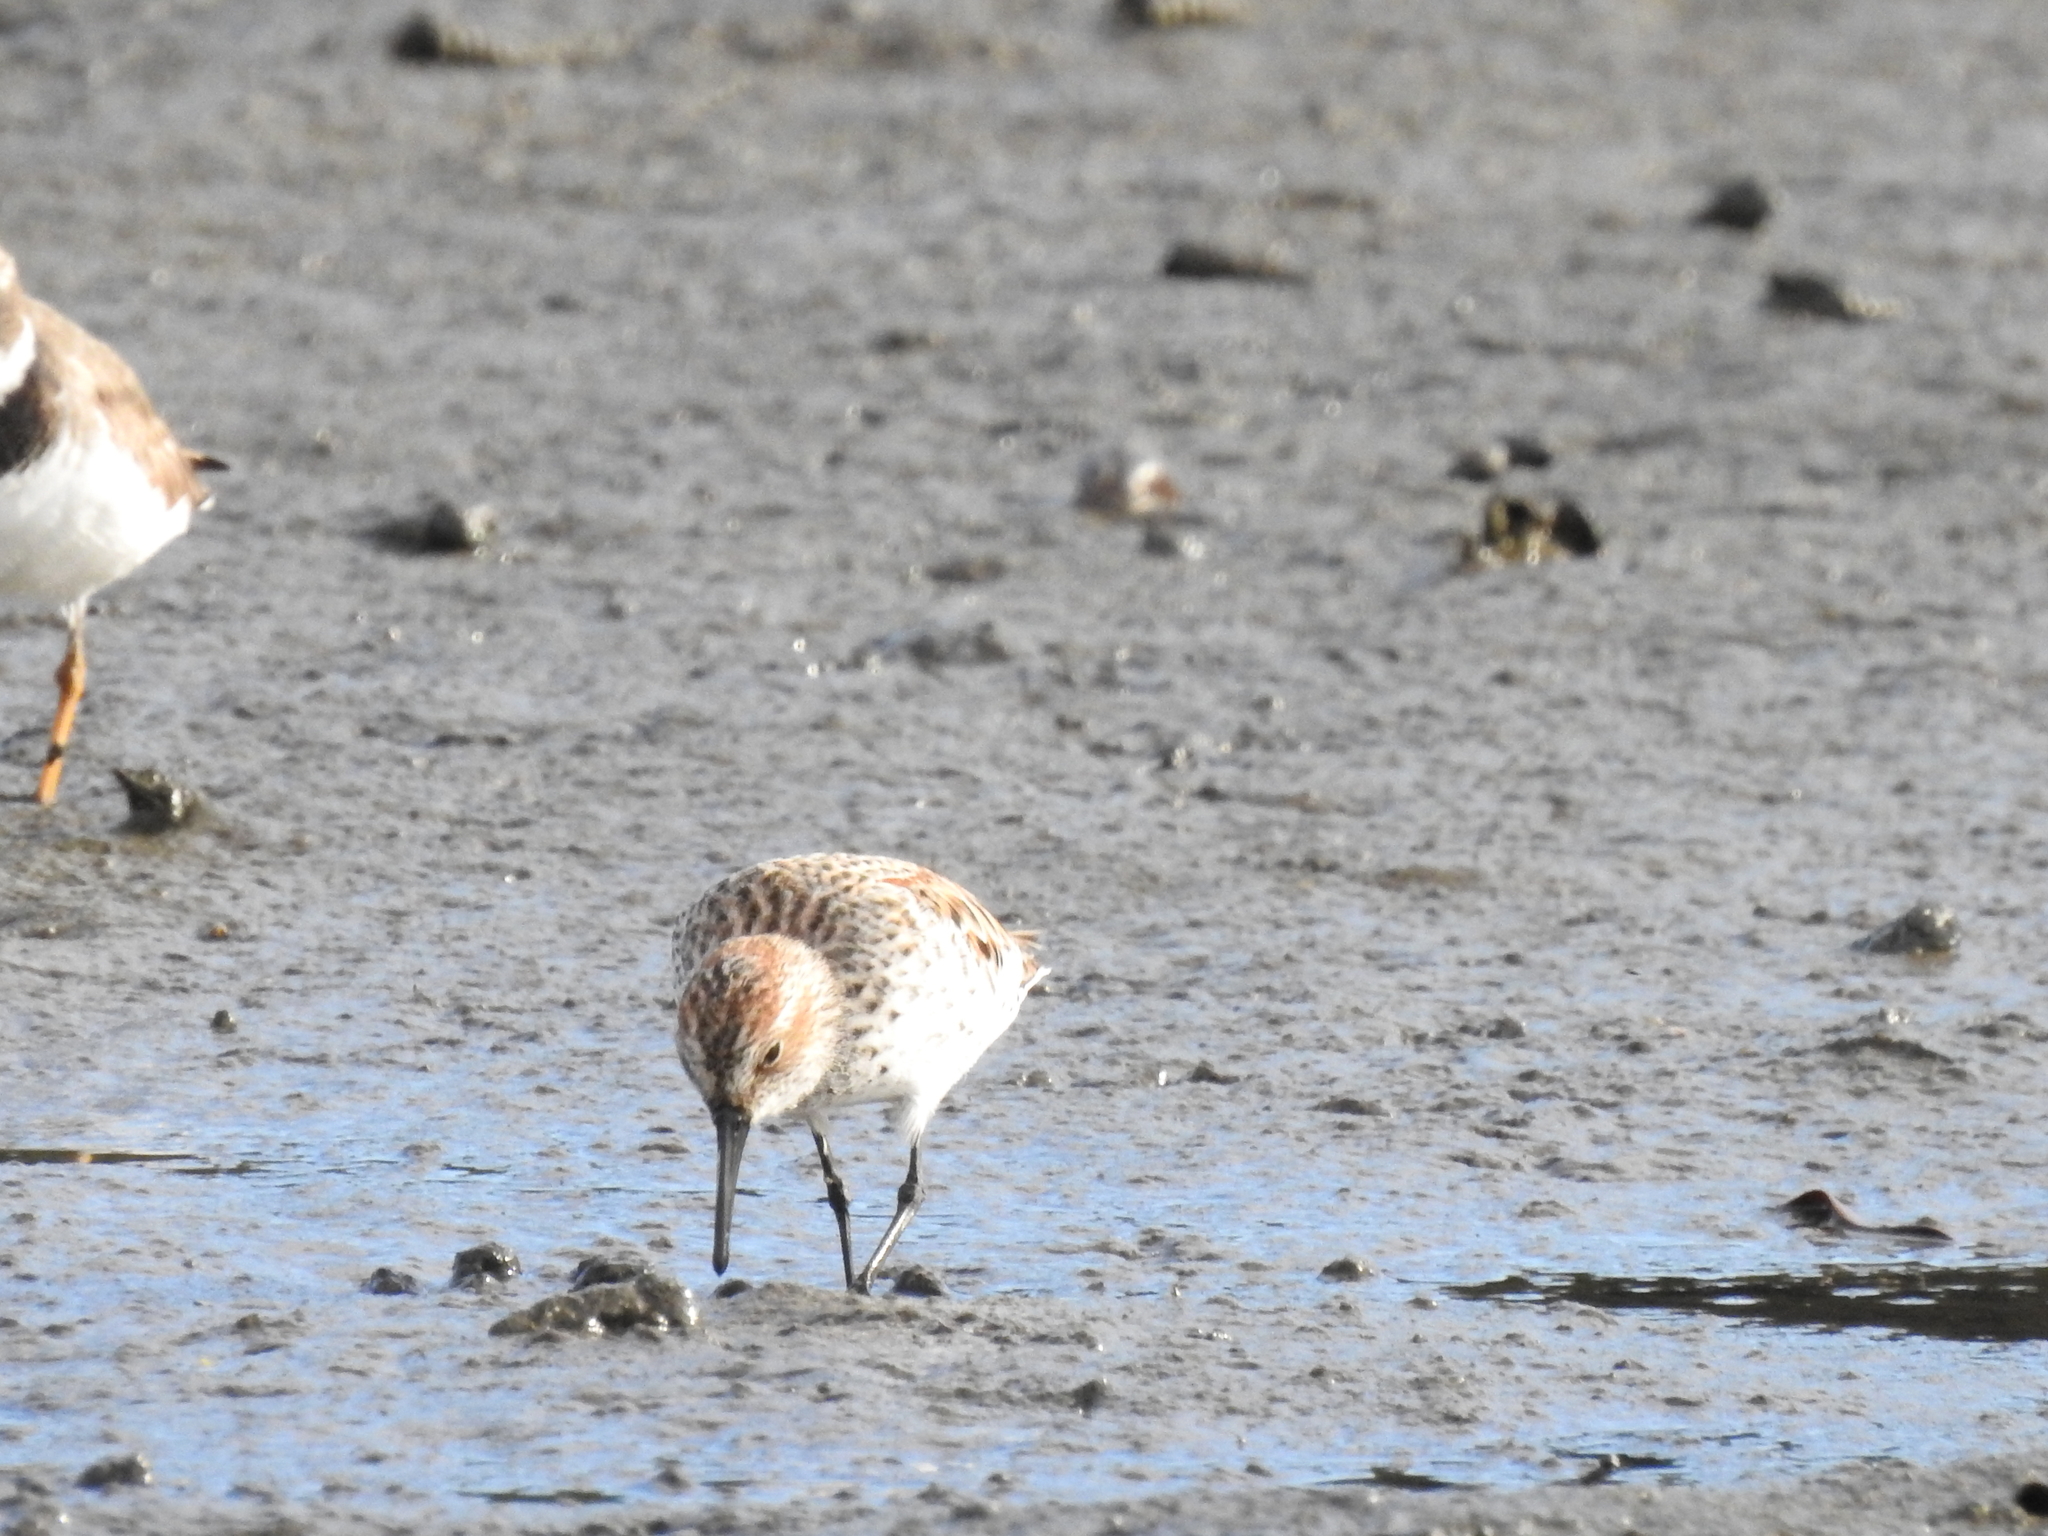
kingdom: Animalia
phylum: Chordata
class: Aves
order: Charadriiformes
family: Scolopacidae
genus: Calidris
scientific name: Calidris mauri
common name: Western sandpiper
